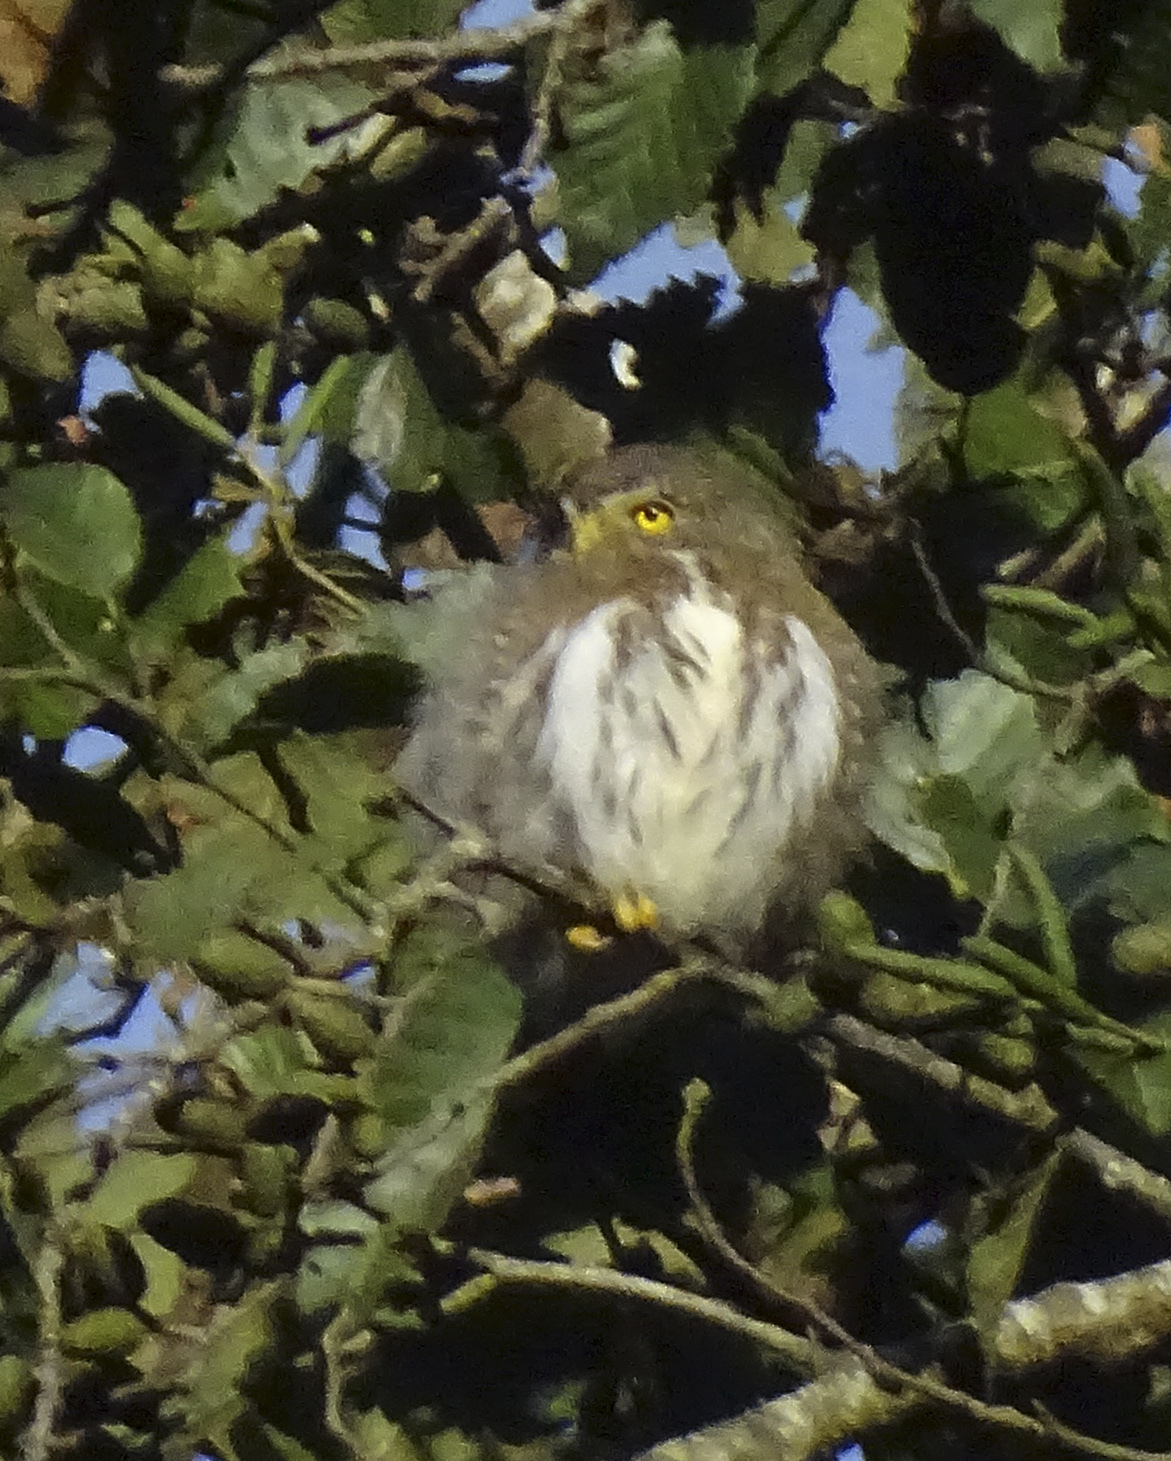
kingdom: Animalia
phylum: Chordata
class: Aves
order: Strigiformes
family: Strigidae
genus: Glaucidium
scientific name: Glaucidium cobanense
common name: Guatemalan pygmy owl
